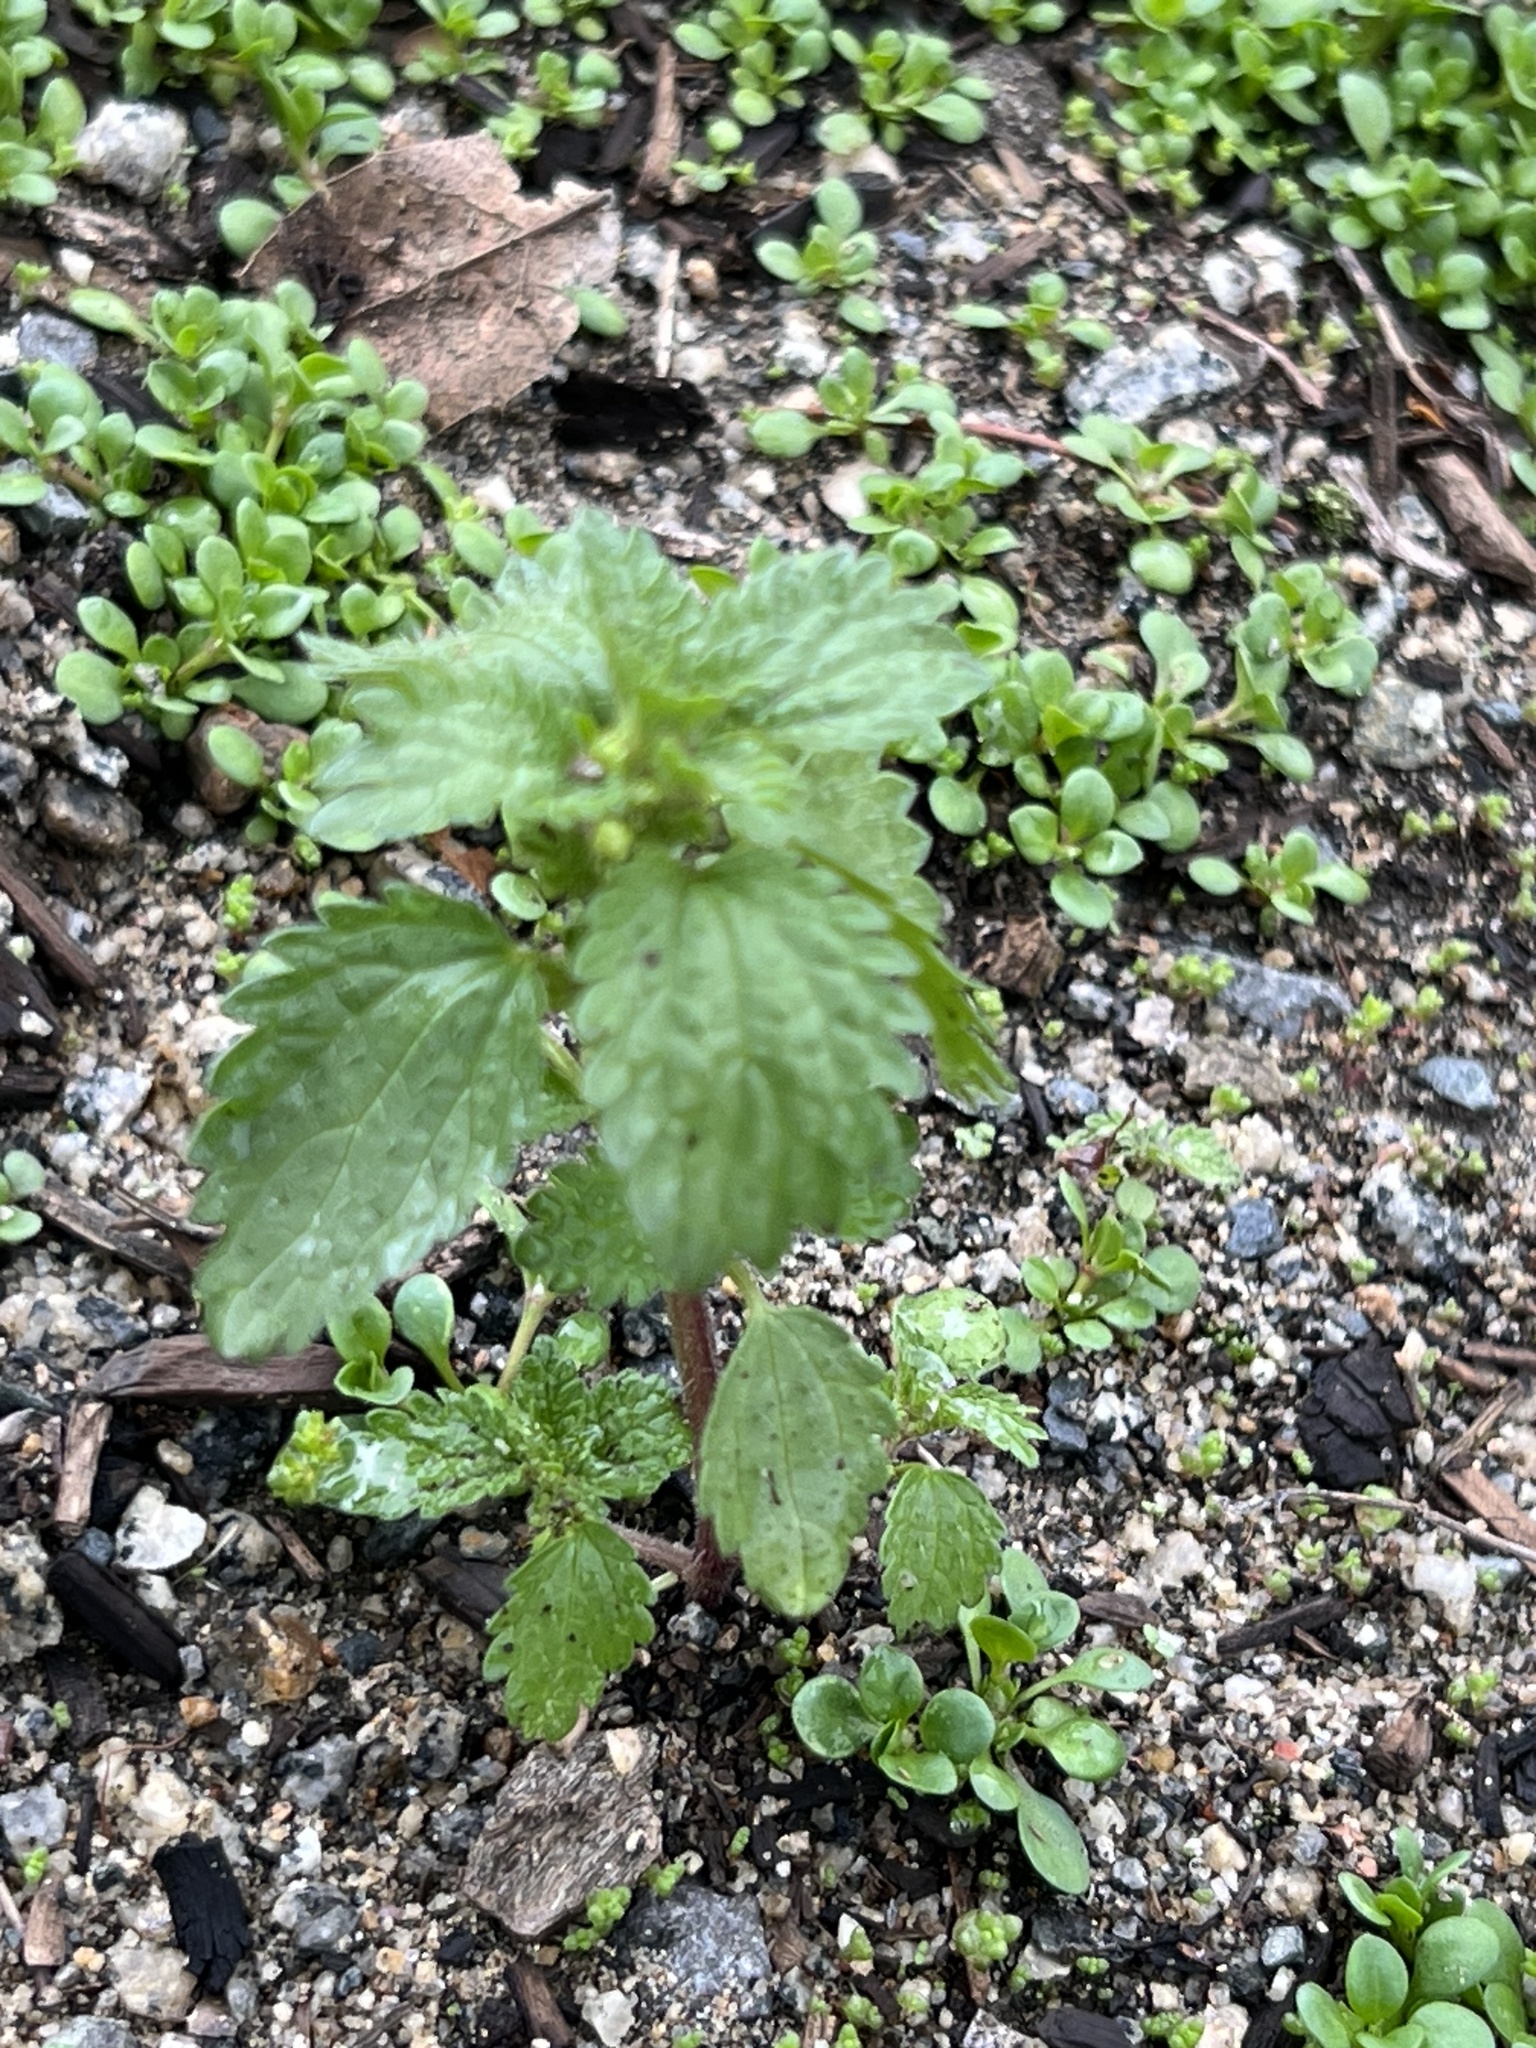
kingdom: Plantae
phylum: Tracheophyta
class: Magnoliopsida
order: Rosales
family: Urticaceae
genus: Urtica
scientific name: Urtica urens
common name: Dwarf nettle
